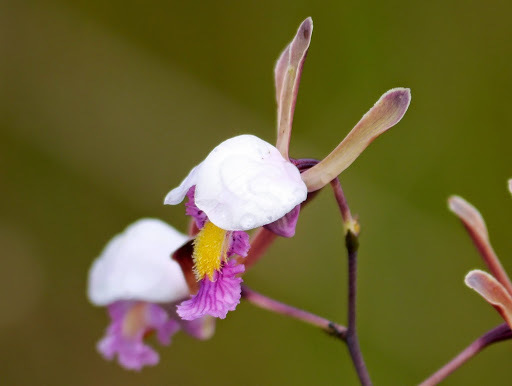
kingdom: Plantae
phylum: Tracheophyta
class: Liliopsida
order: Asparagales
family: Orchidaceae
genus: Eulophia
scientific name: Eulophia caricifolia
